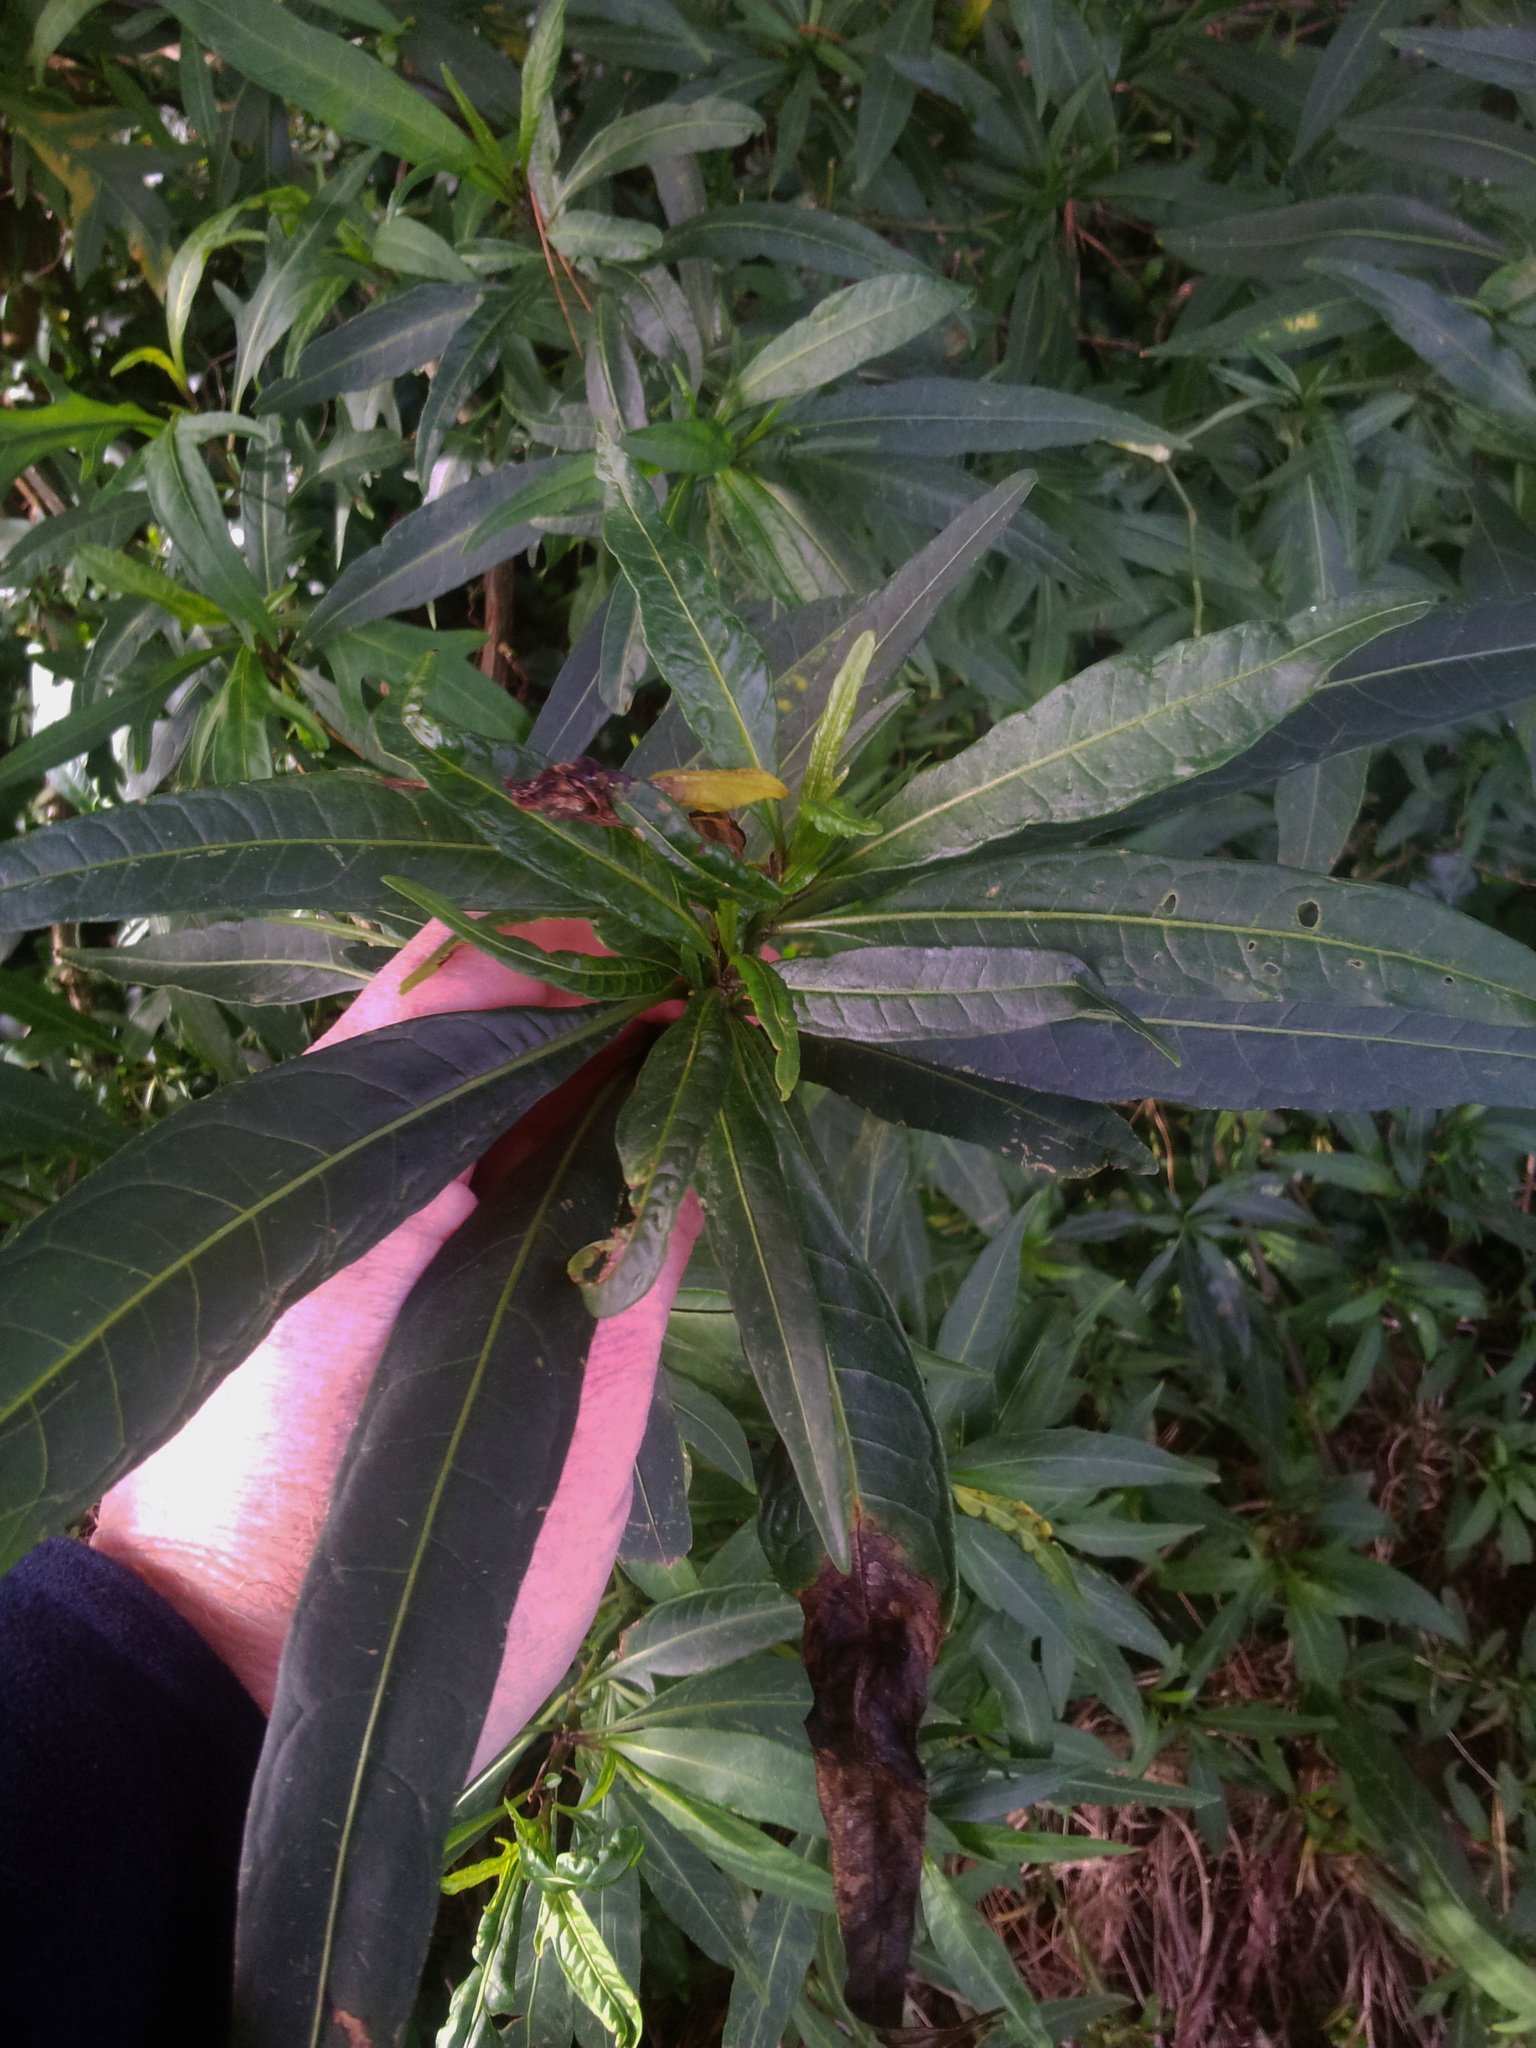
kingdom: Plantae
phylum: Tracheophyta
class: Magnoliopsida
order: Solanales
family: Solanaceae
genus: Solanum
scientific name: Solanum aviculare
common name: New zealand nightshade
